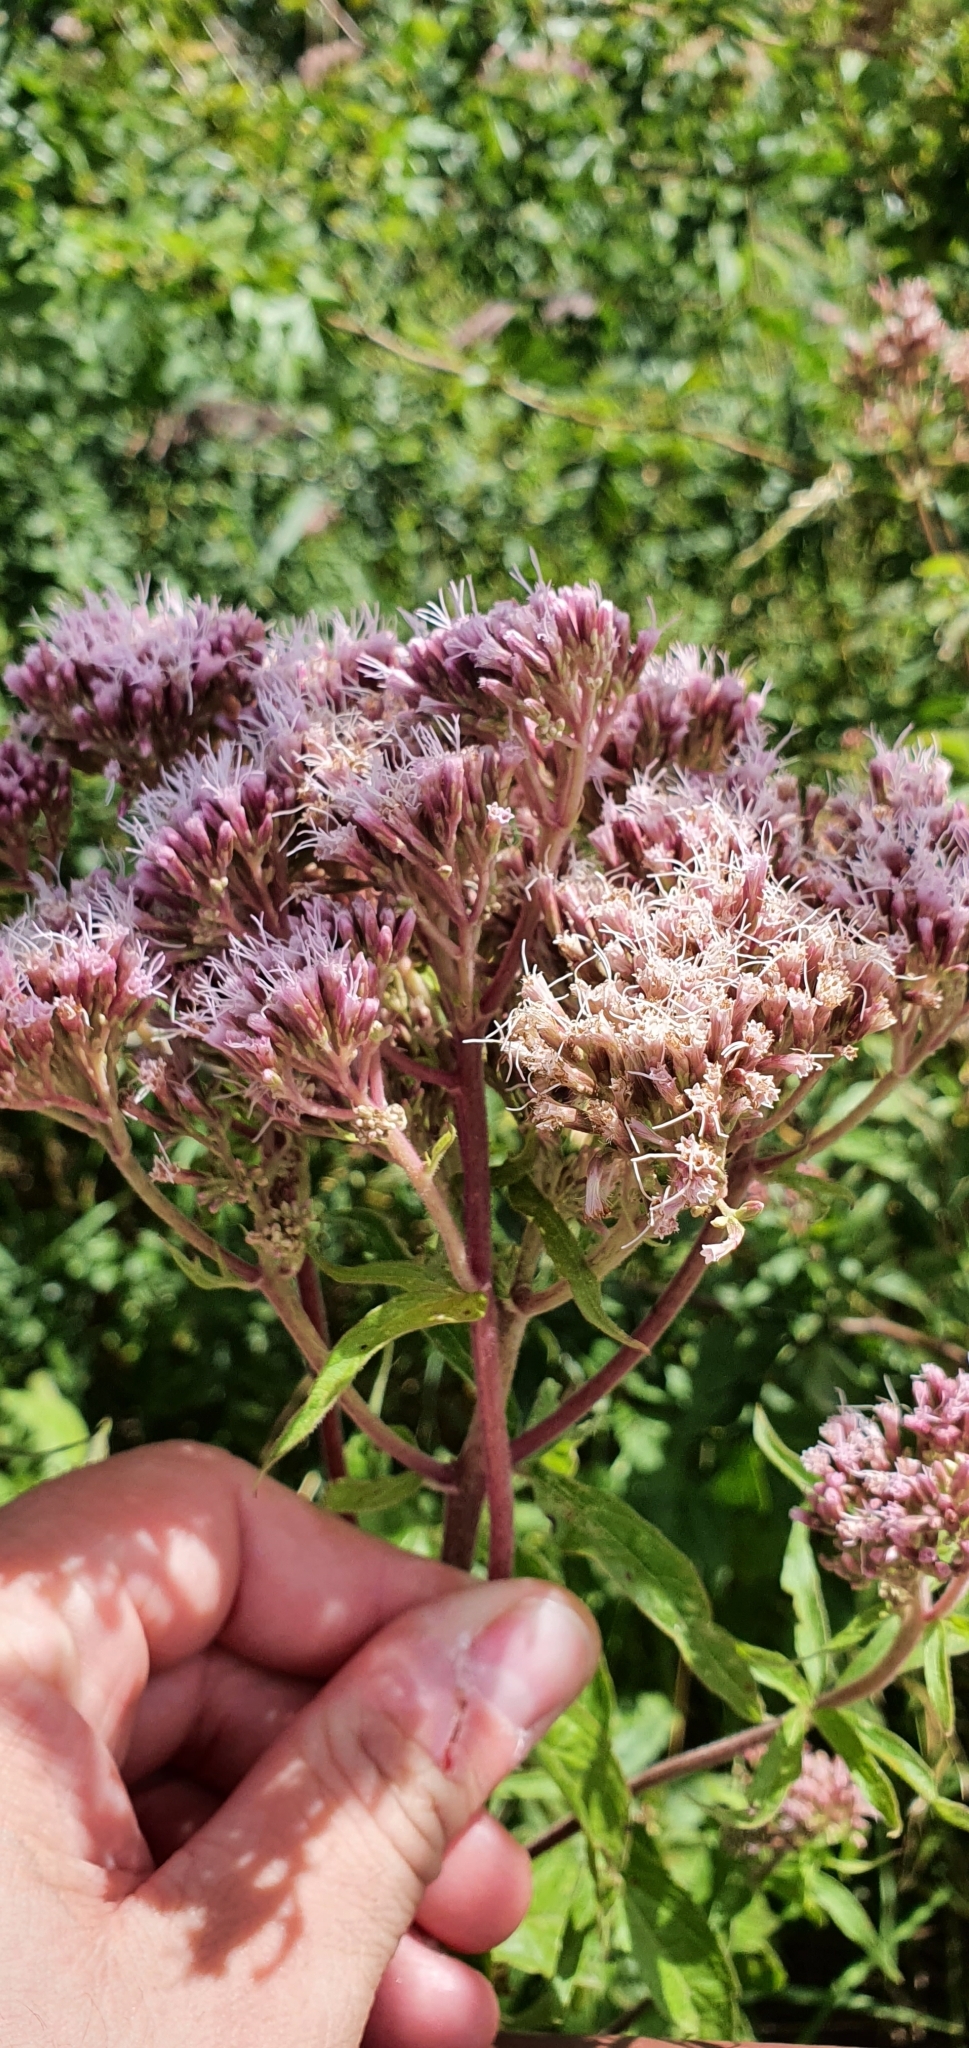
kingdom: Plantae
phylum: Tracheophyta
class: Magnoliopsida
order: Asterales
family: Asteraceae
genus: Eupatorium
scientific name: Eupatorium cannabinum
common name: Hemp-agrimony
